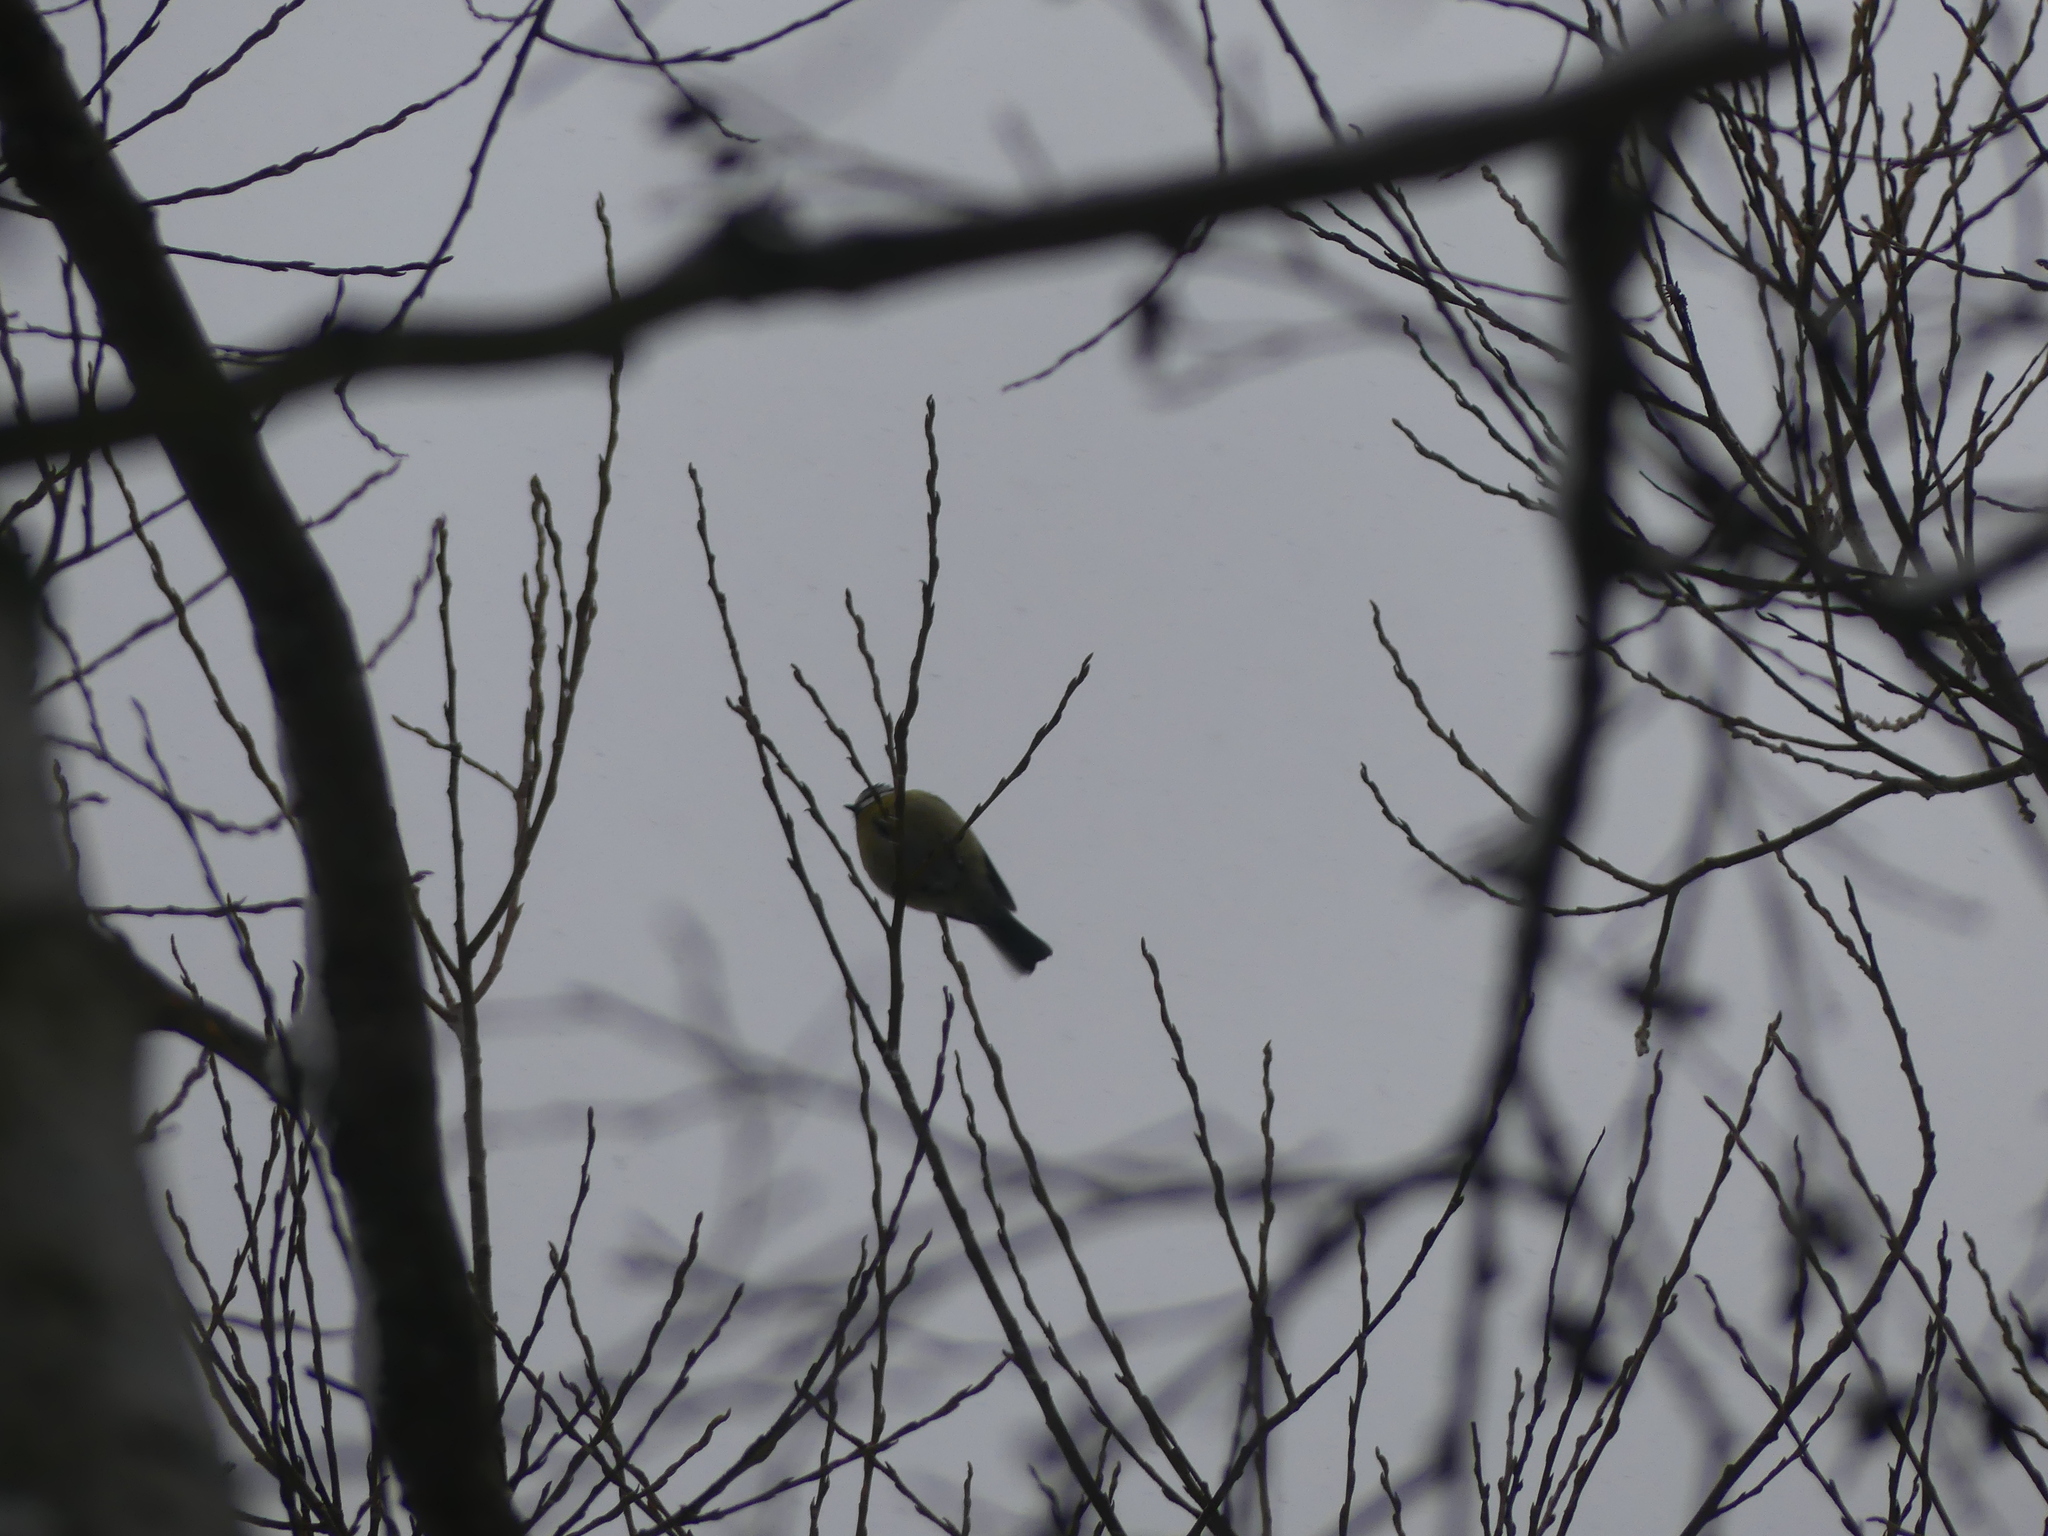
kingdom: Animalia
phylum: Chordata
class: Aves
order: Passeriformes
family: Paridae
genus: Cyanistes
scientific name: Cyanistes caeruleus
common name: Eurasian blue tit
